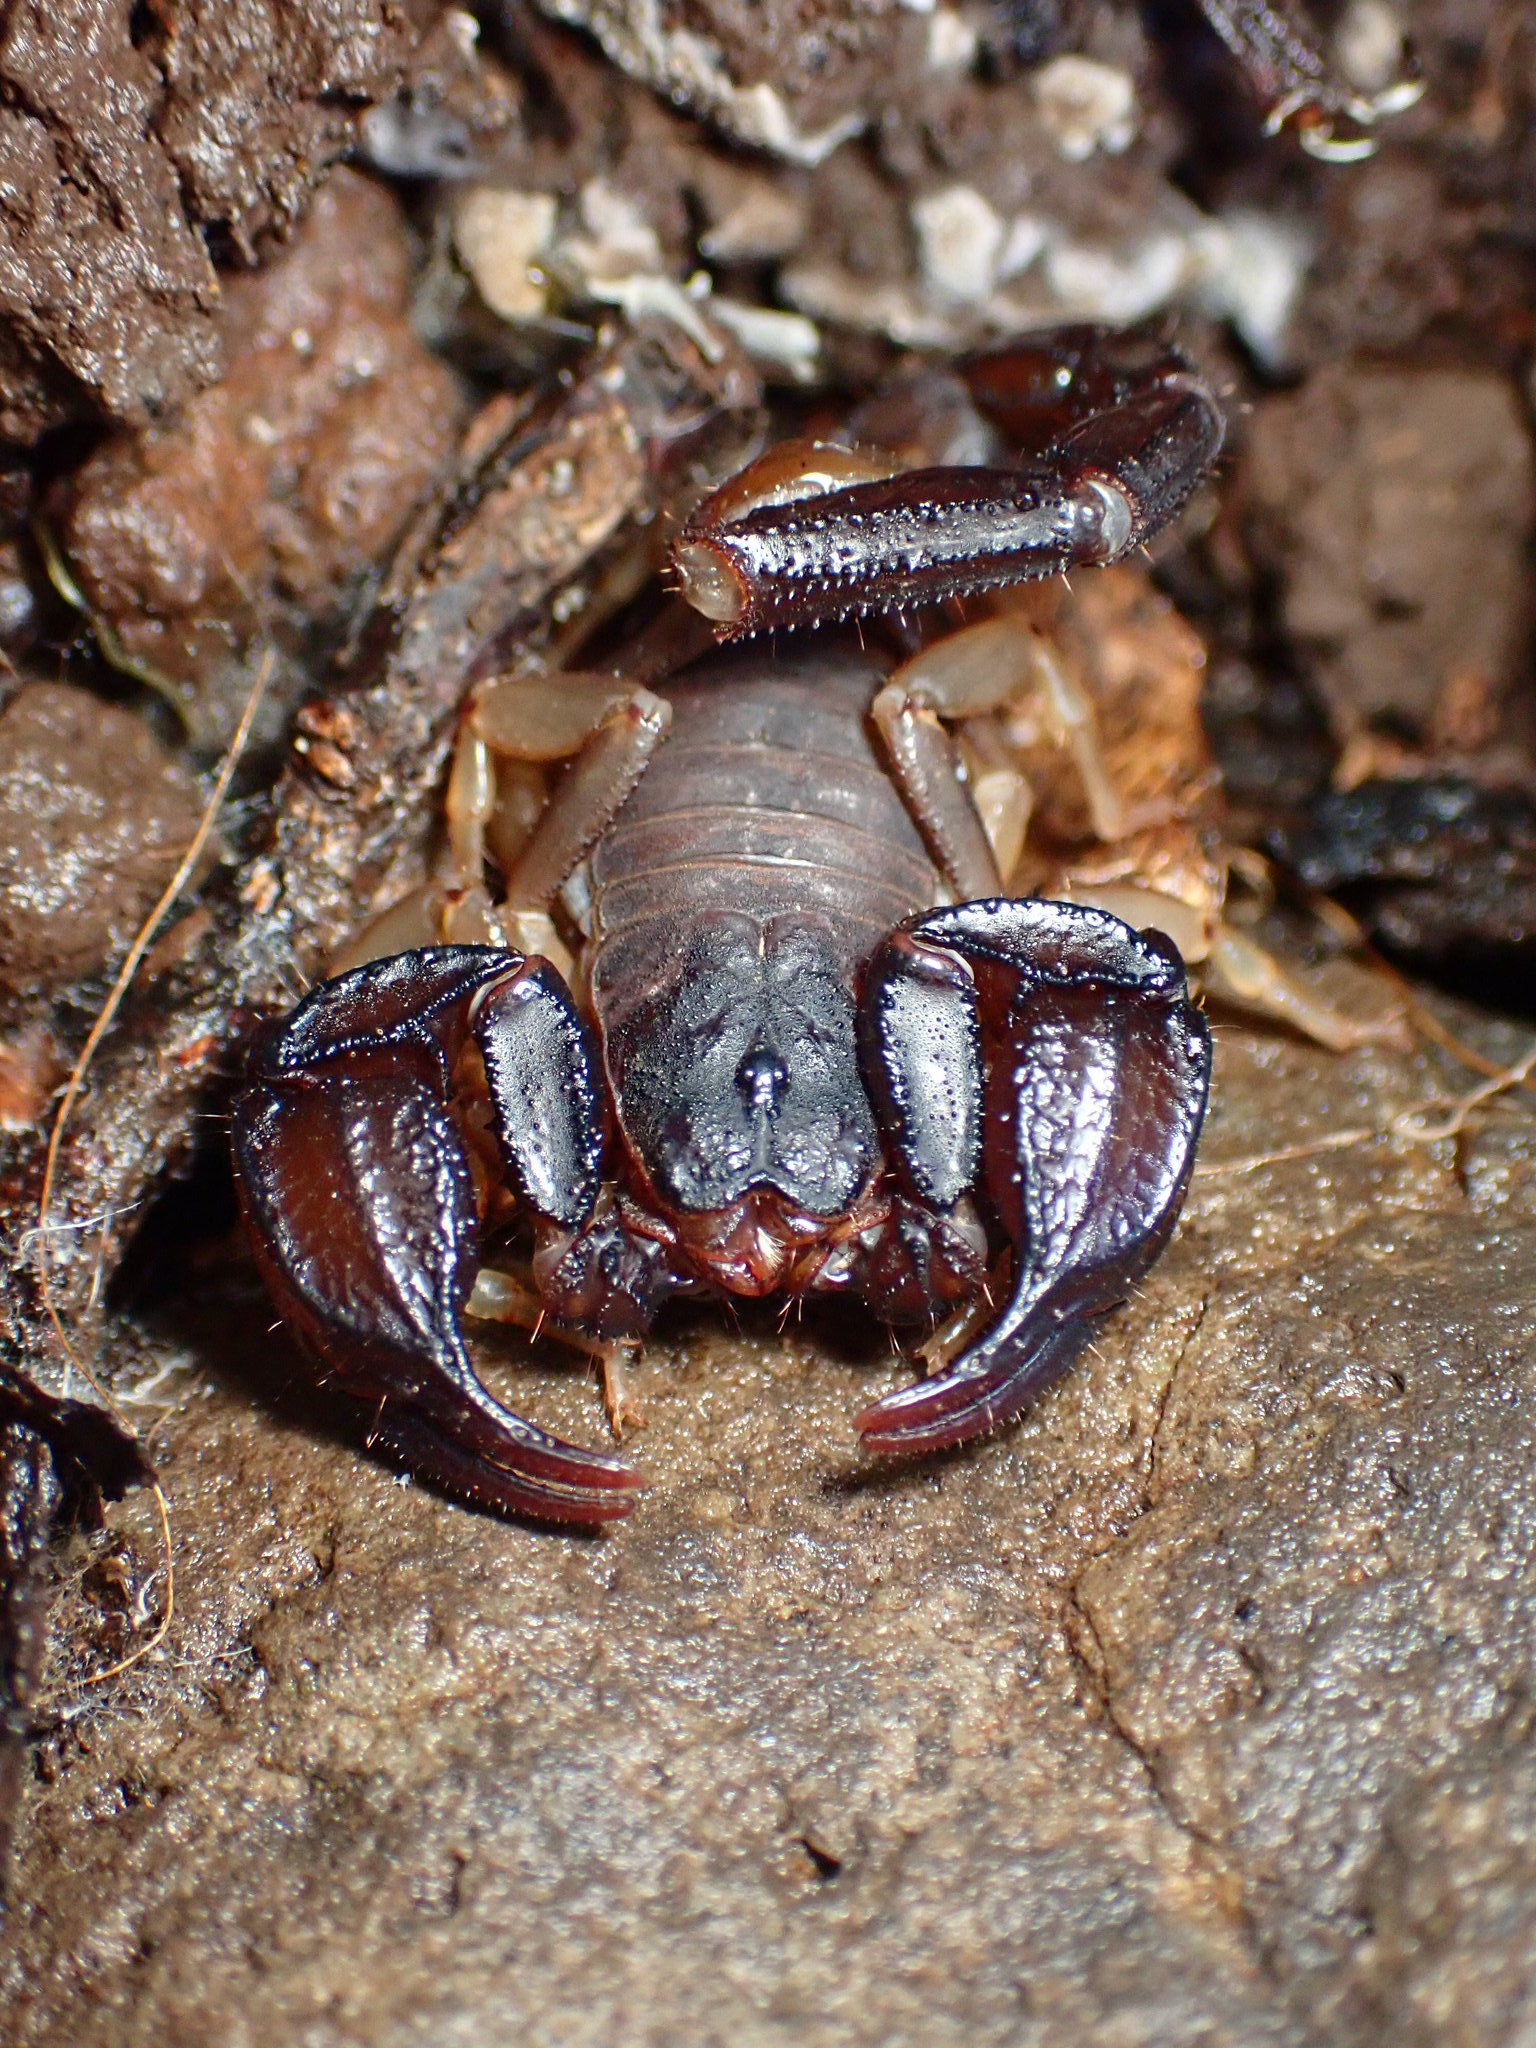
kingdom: Animalia
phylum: Arthropoda
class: Arachnida
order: Scorpiones
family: Chactidae
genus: Uroctonus
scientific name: Uroctonus mordax
